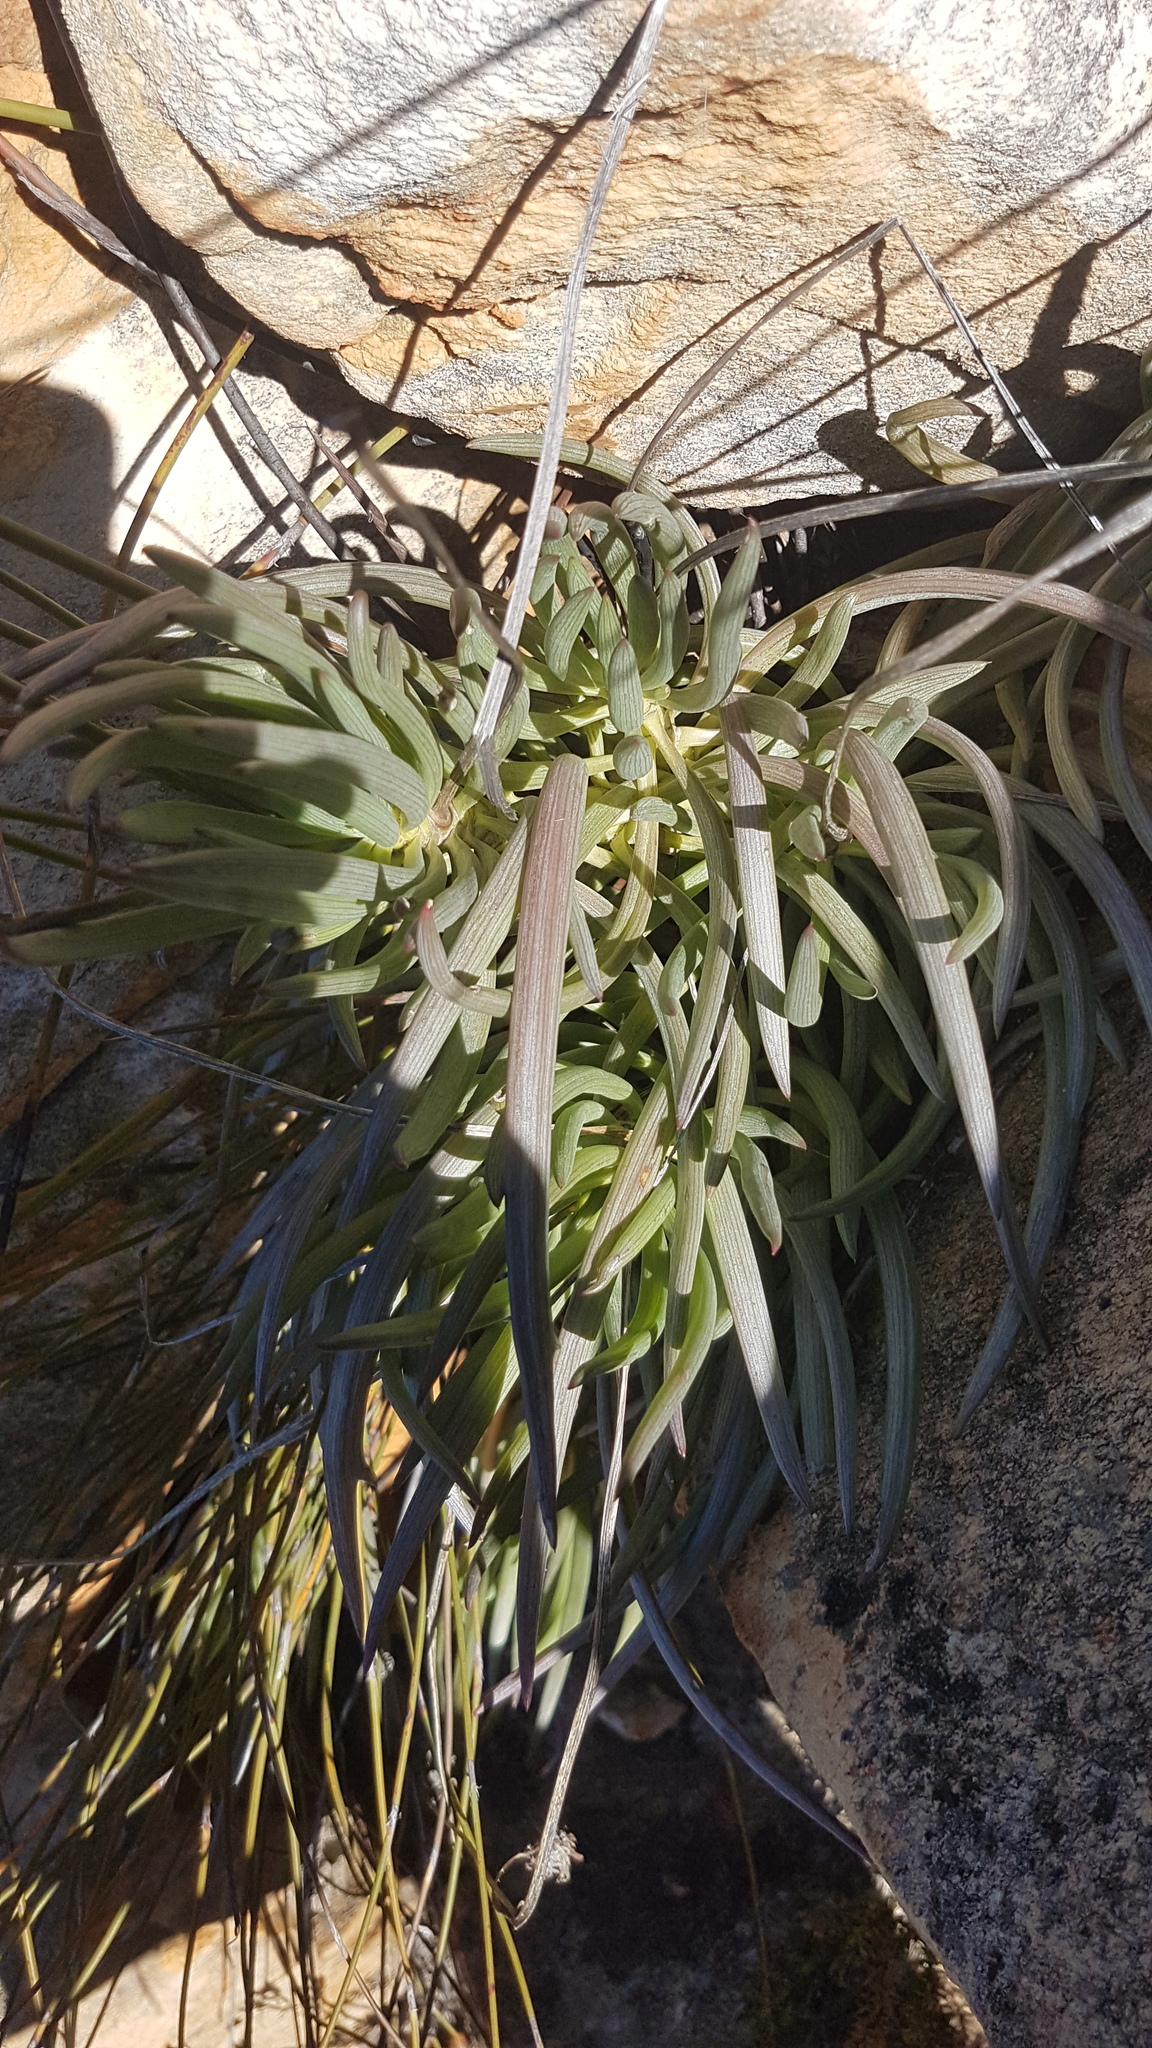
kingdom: Plantae
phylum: Tracheophyta
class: Magnoliopsida
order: Asterales
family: Asteraceae
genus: Curio
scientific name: Curio talinoides
